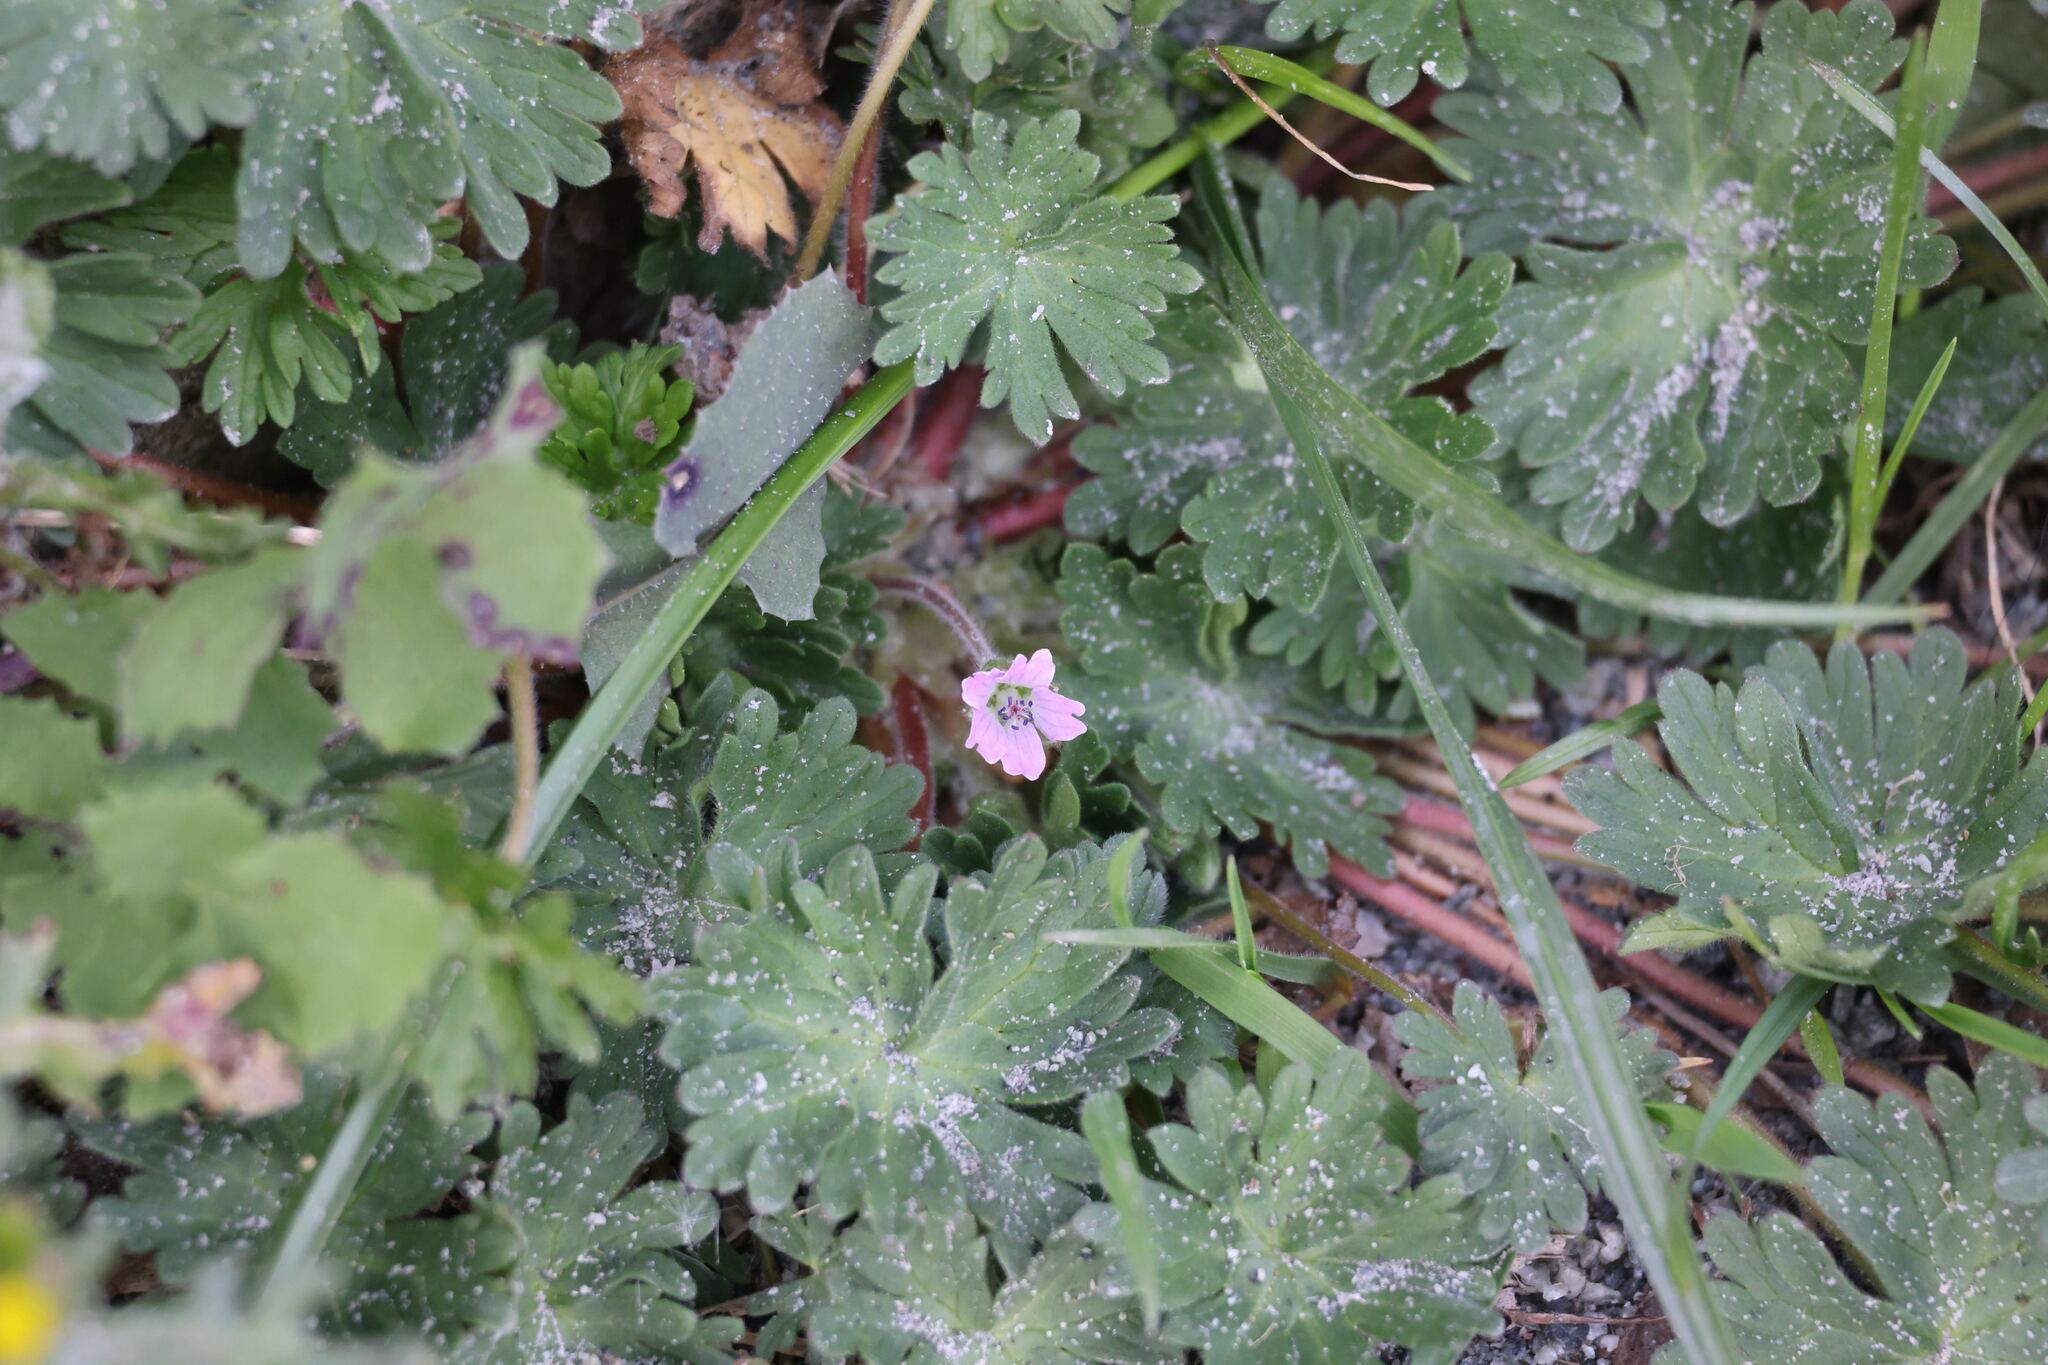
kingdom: Plantae
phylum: Tracheophyta
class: Magnoliopsida
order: Geraniales
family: Geraniaceae
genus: Geranium
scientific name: Geranium molle
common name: Dove's-foot crane's-bill
